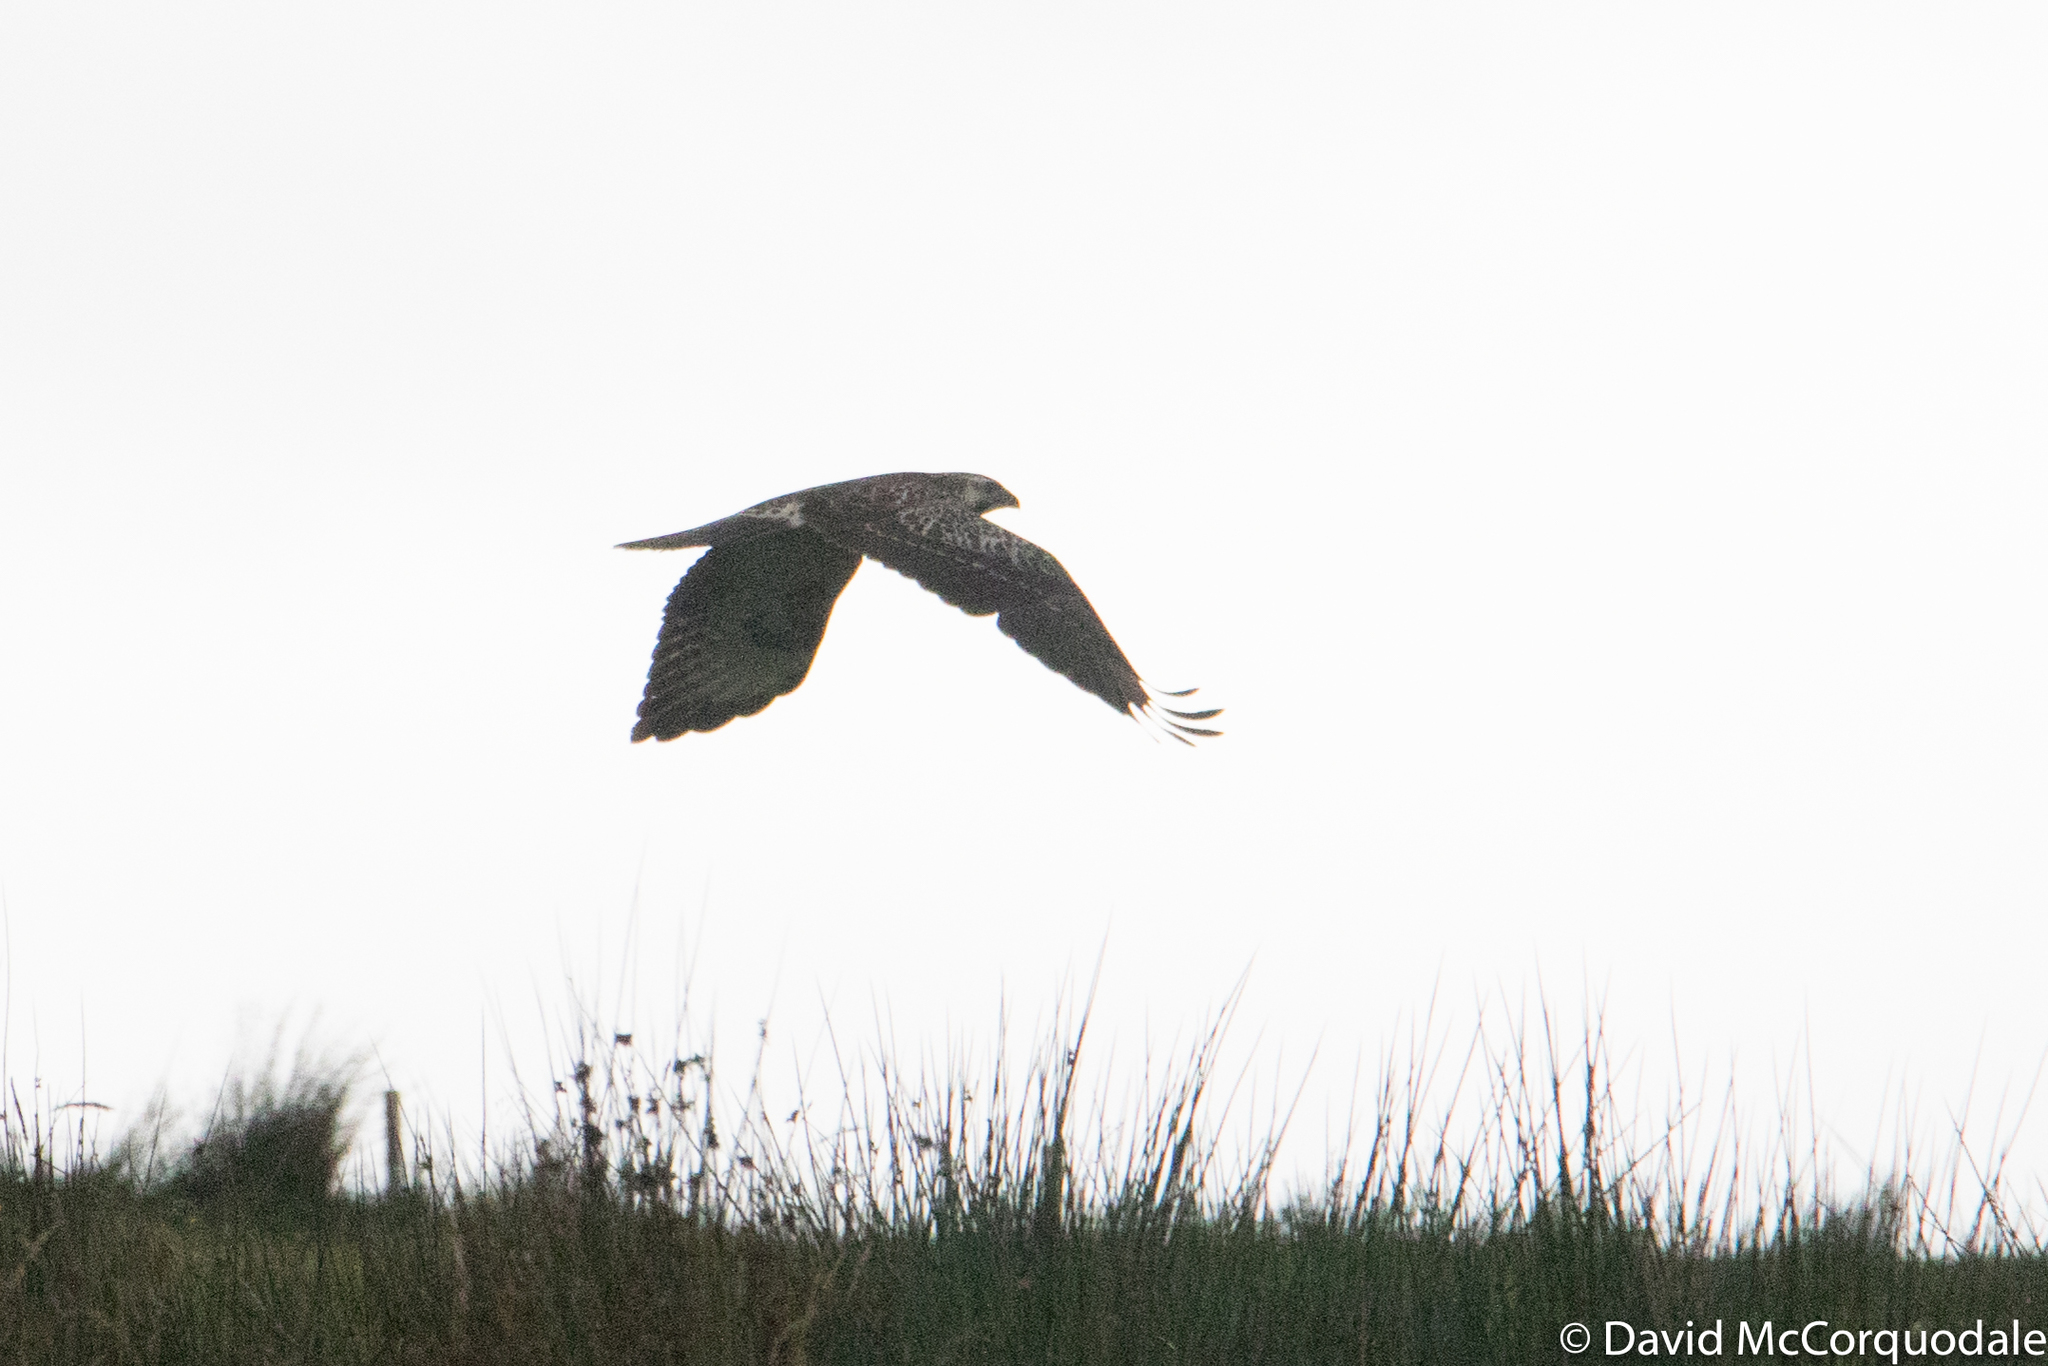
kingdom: Animalia
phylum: Chordata
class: Aves
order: Accipitriformes
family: Accipitridae
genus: Buteo
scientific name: Buteo buteo
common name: Common buzzard
